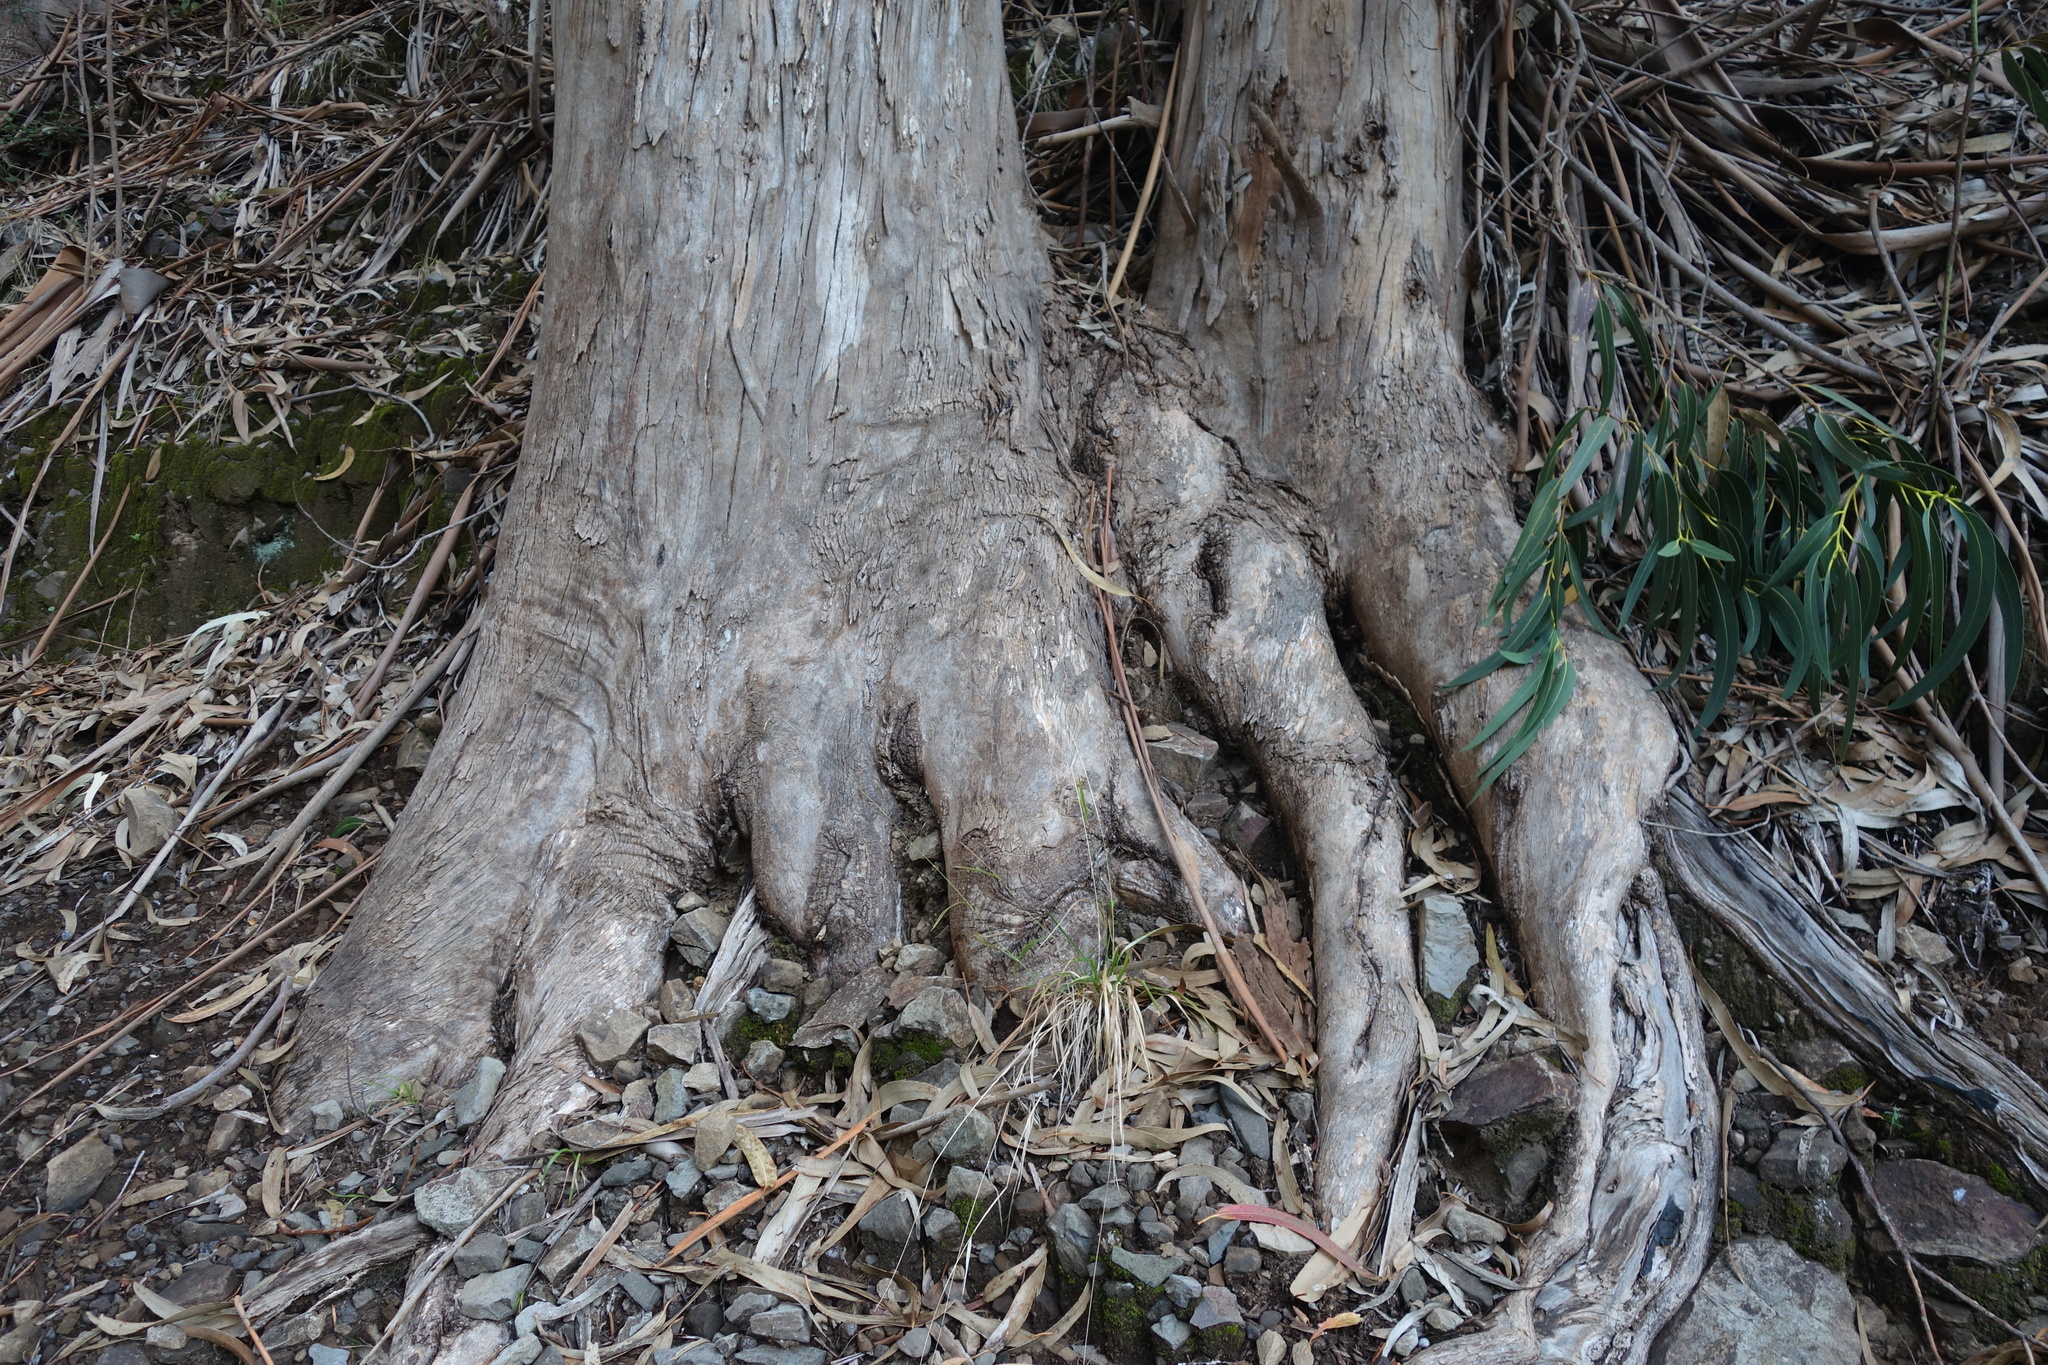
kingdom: Plantae
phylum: Tracheophyta
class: Magnoliopsida
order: Myrtales
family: Myrtaceae
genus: Eucalyptus
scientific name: Eucalyptus globulus
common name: Southern blue-gum
